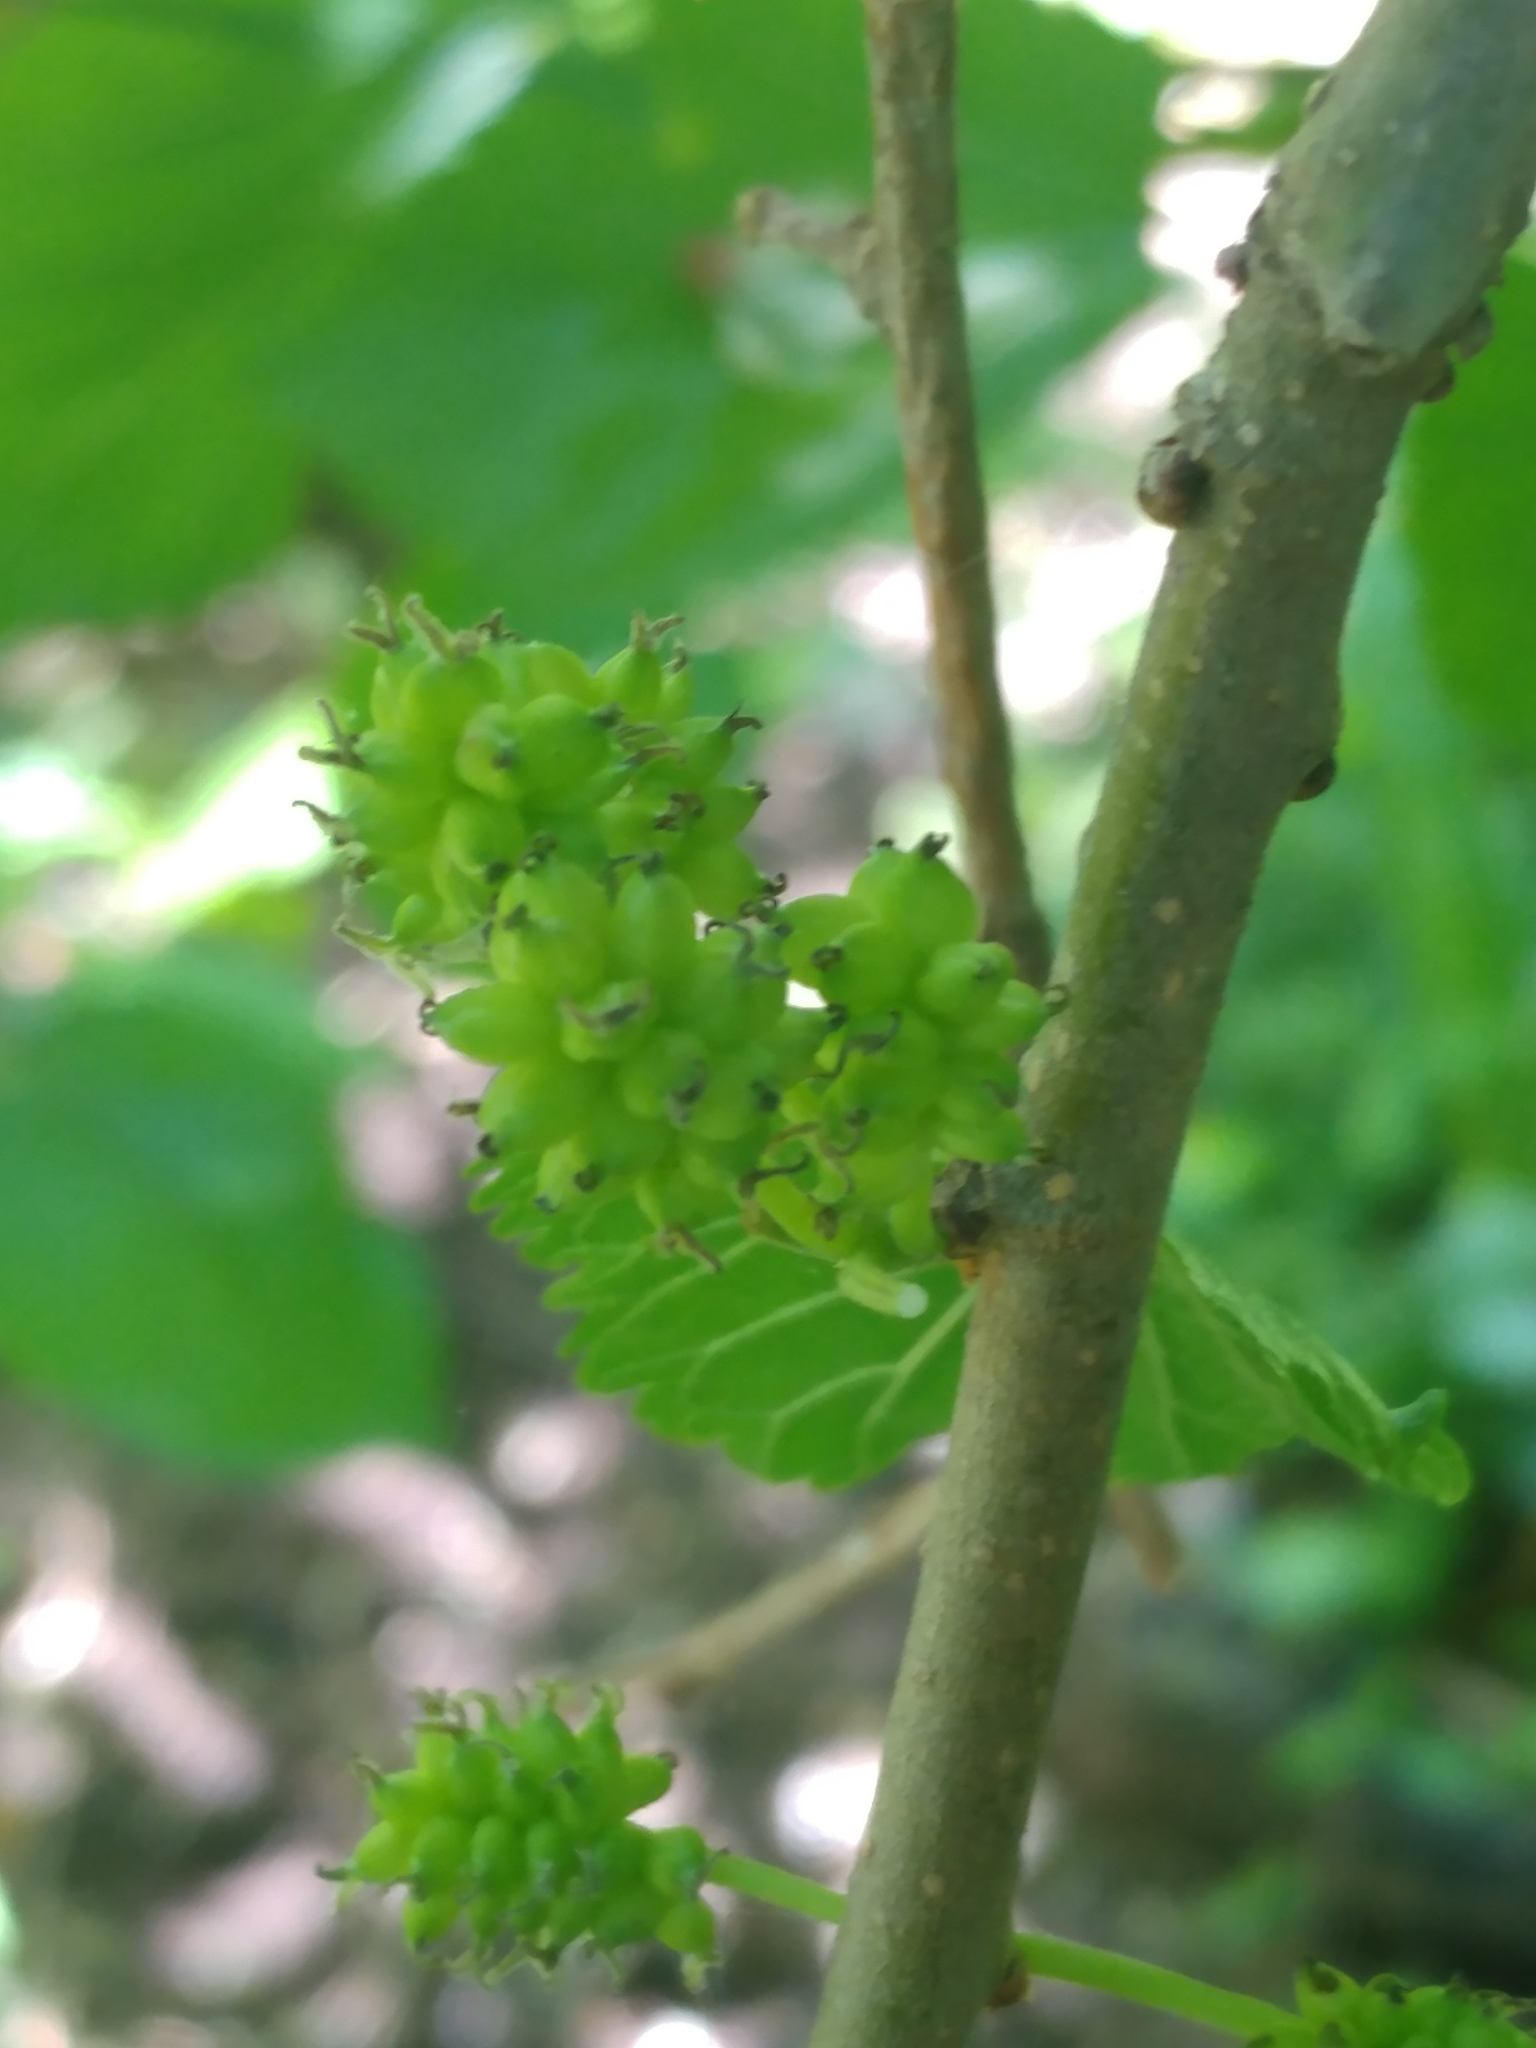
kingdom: Plantae
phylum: Tracheophyta
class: Magnoliopsida
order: Rosales
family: Moraceae
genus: Morus
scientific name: Morus alba
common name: White mulberry
